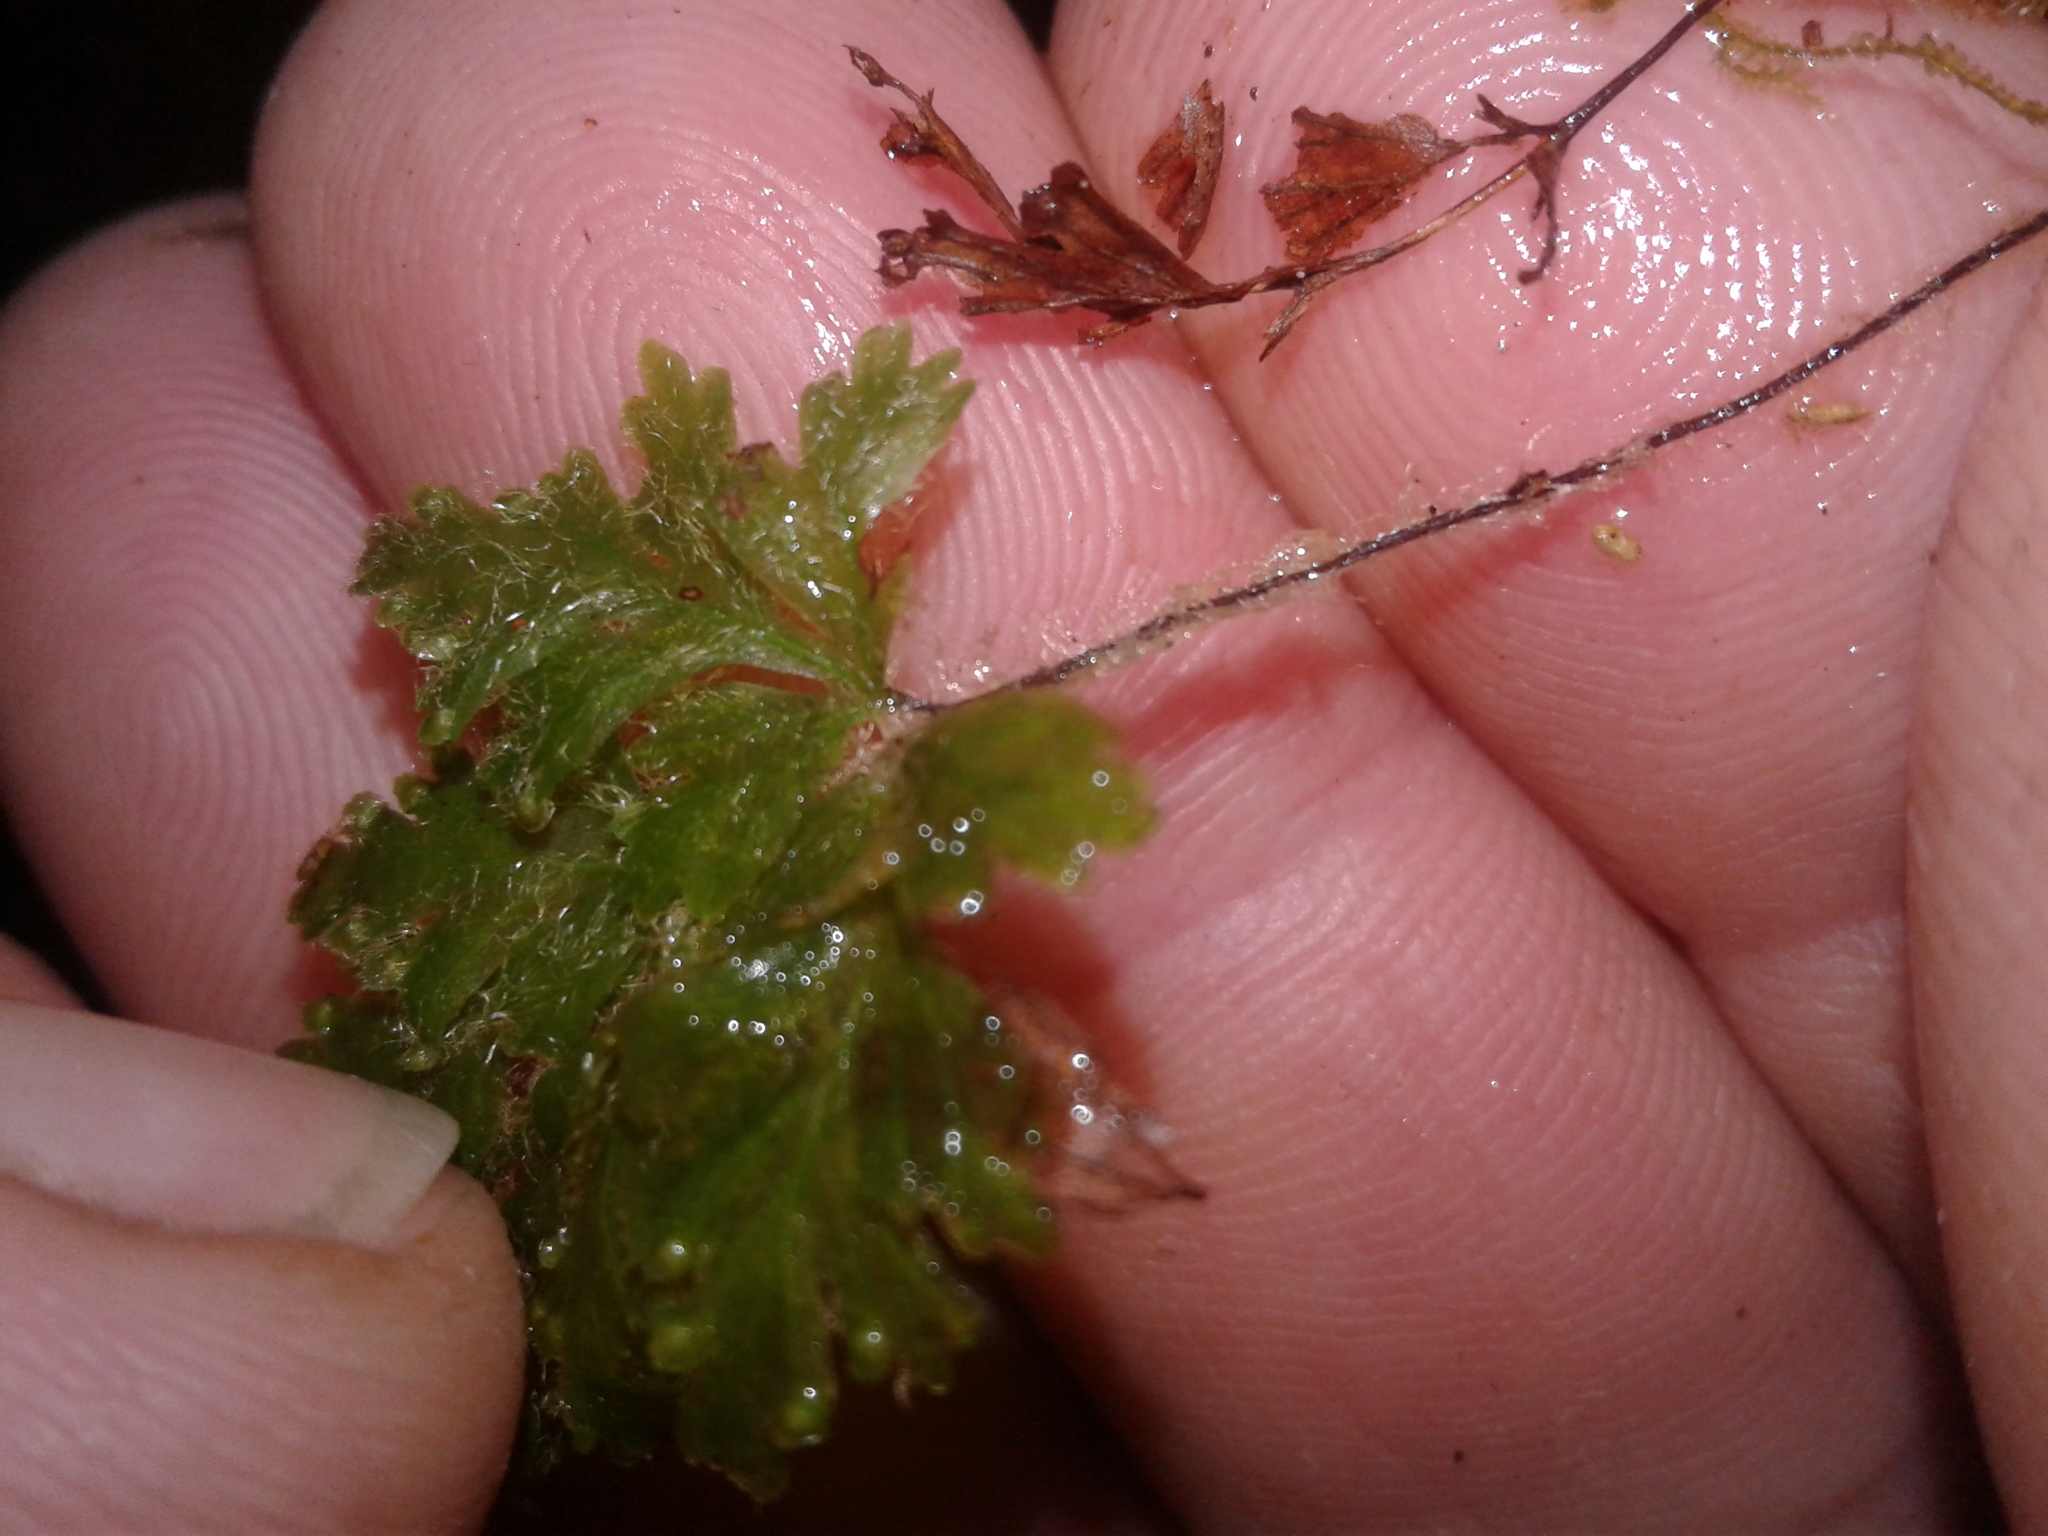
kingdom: Plantae
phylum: Tracheophyta
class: Polypodiopsida
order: Hymenophyllales
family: Hymenophyllaceae
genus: Hymenophyllum
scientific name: Hymenophyllum rufescens
